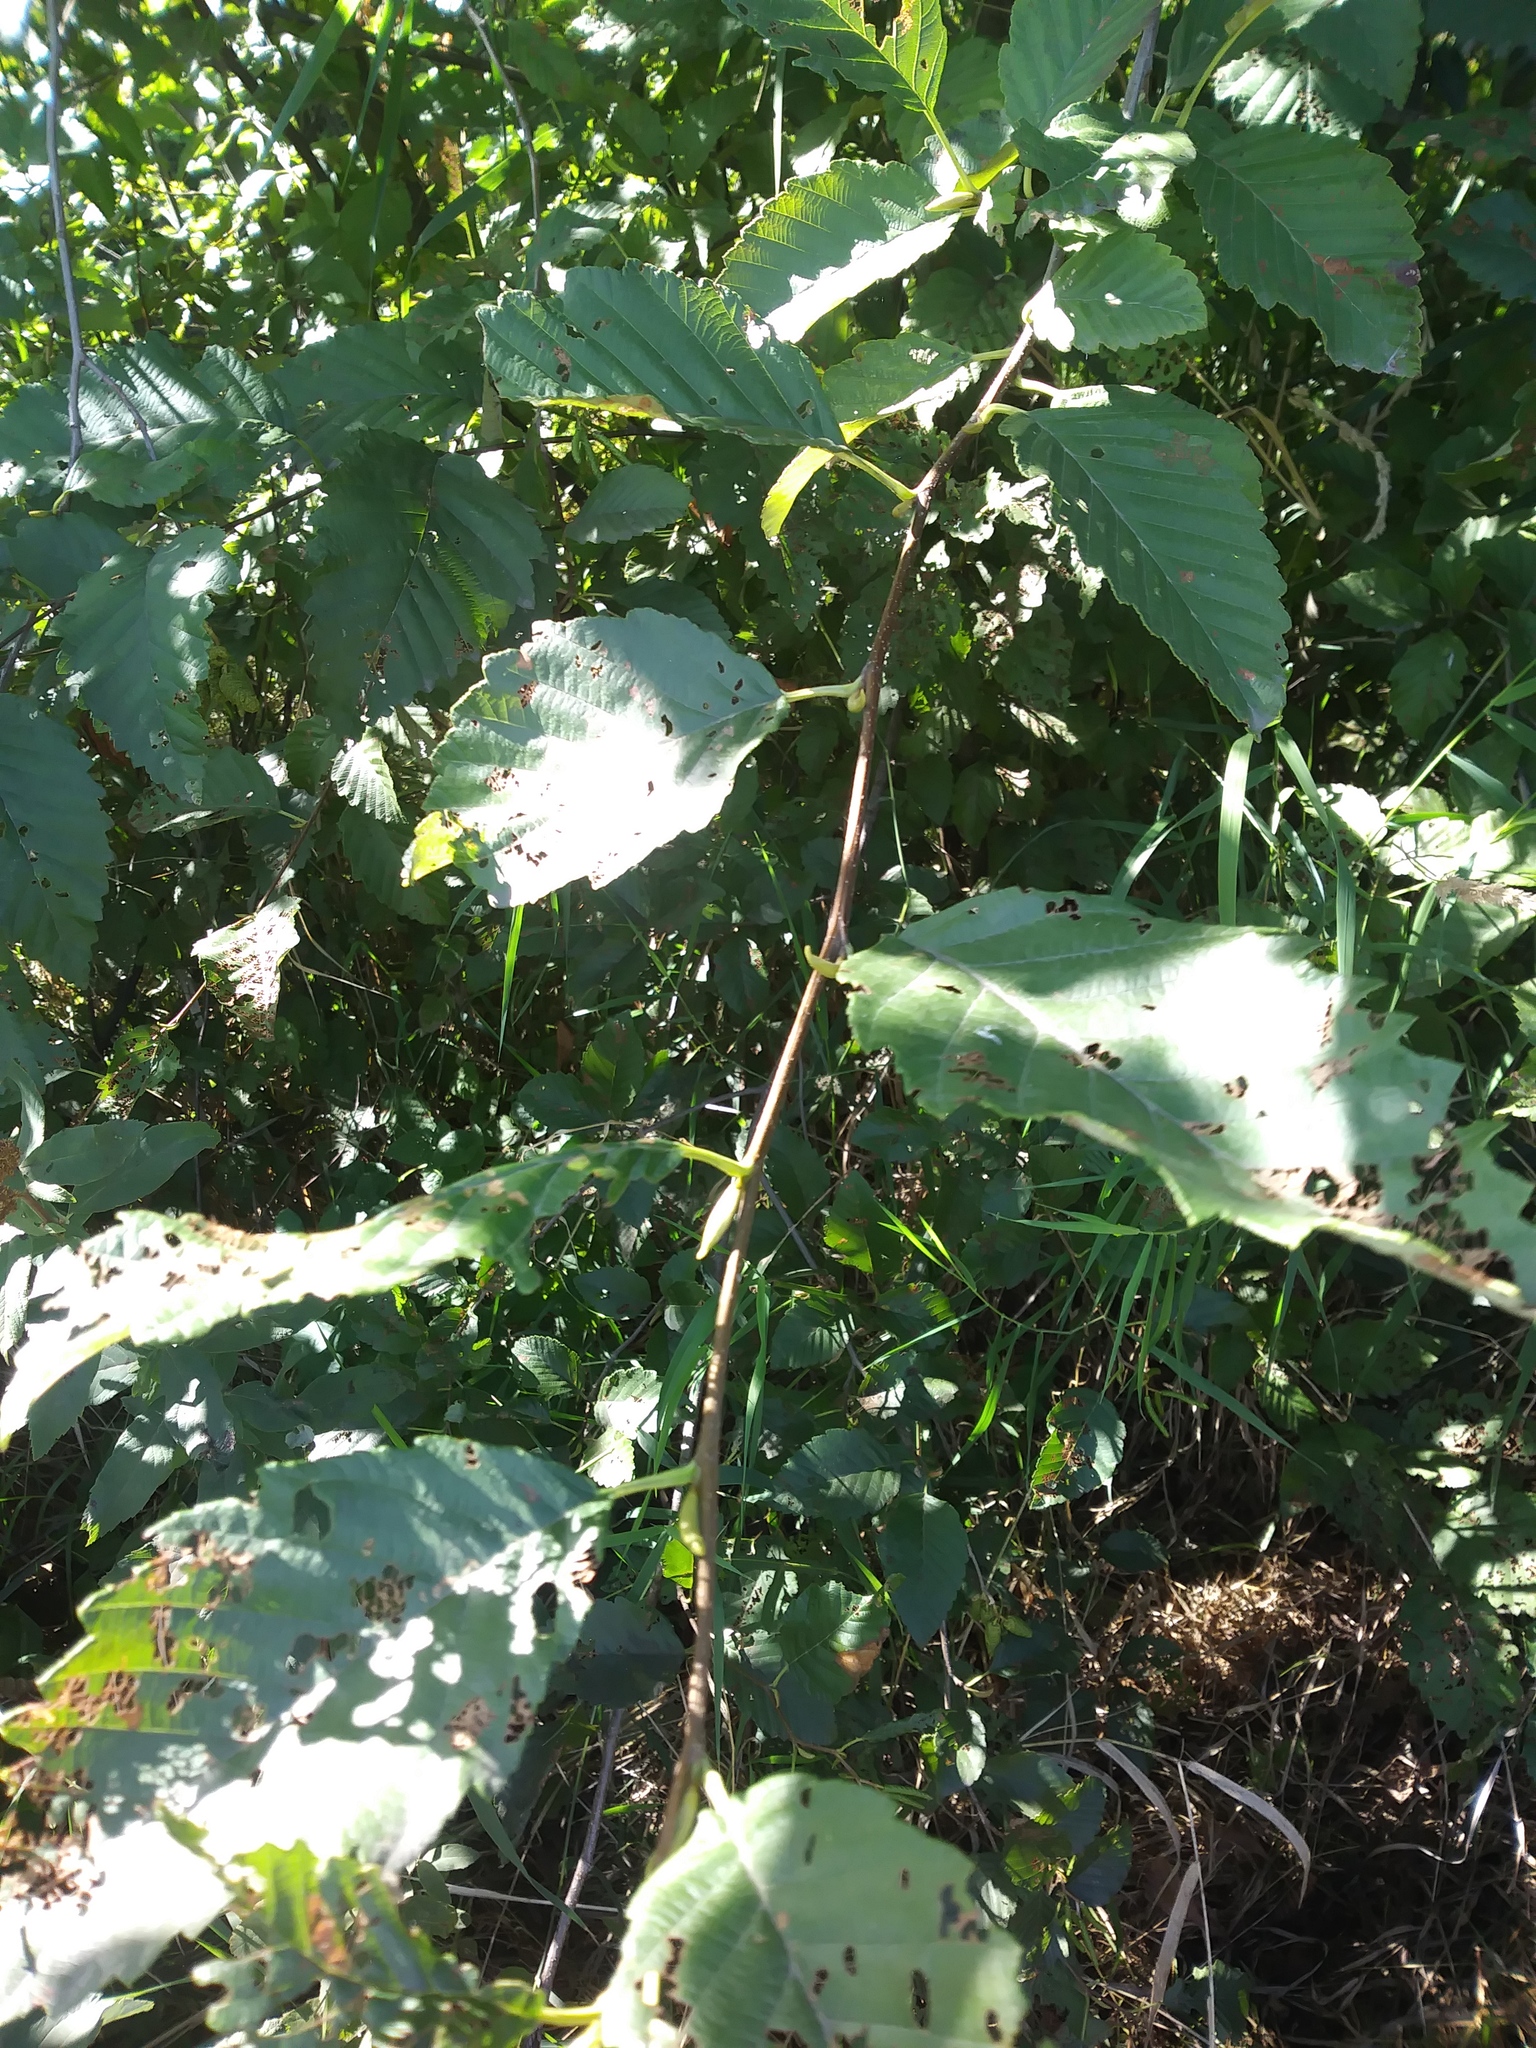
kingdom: Animalia
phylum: Arthropoda
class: Insecta
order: Lepidoptera
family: Erebidae
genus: Hyphantria
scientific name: Hyphantria cunea
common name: American white moth
